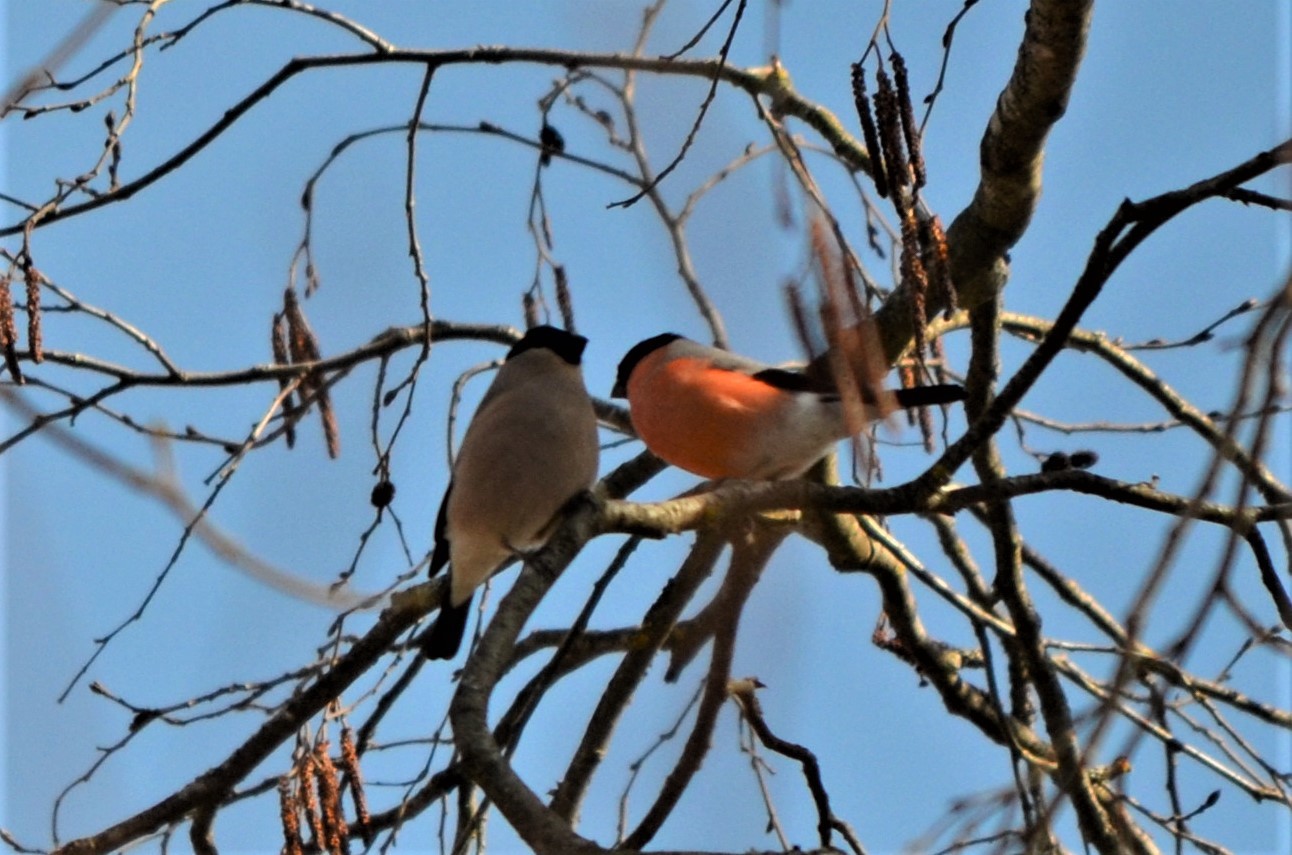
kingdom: Animalia
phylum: Chordata
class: Aves
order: Passeriformes
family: Fringillidae
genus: Pyrrhula
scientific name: Pyrrhula pyrrhula
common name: Eurasian bullfinch
